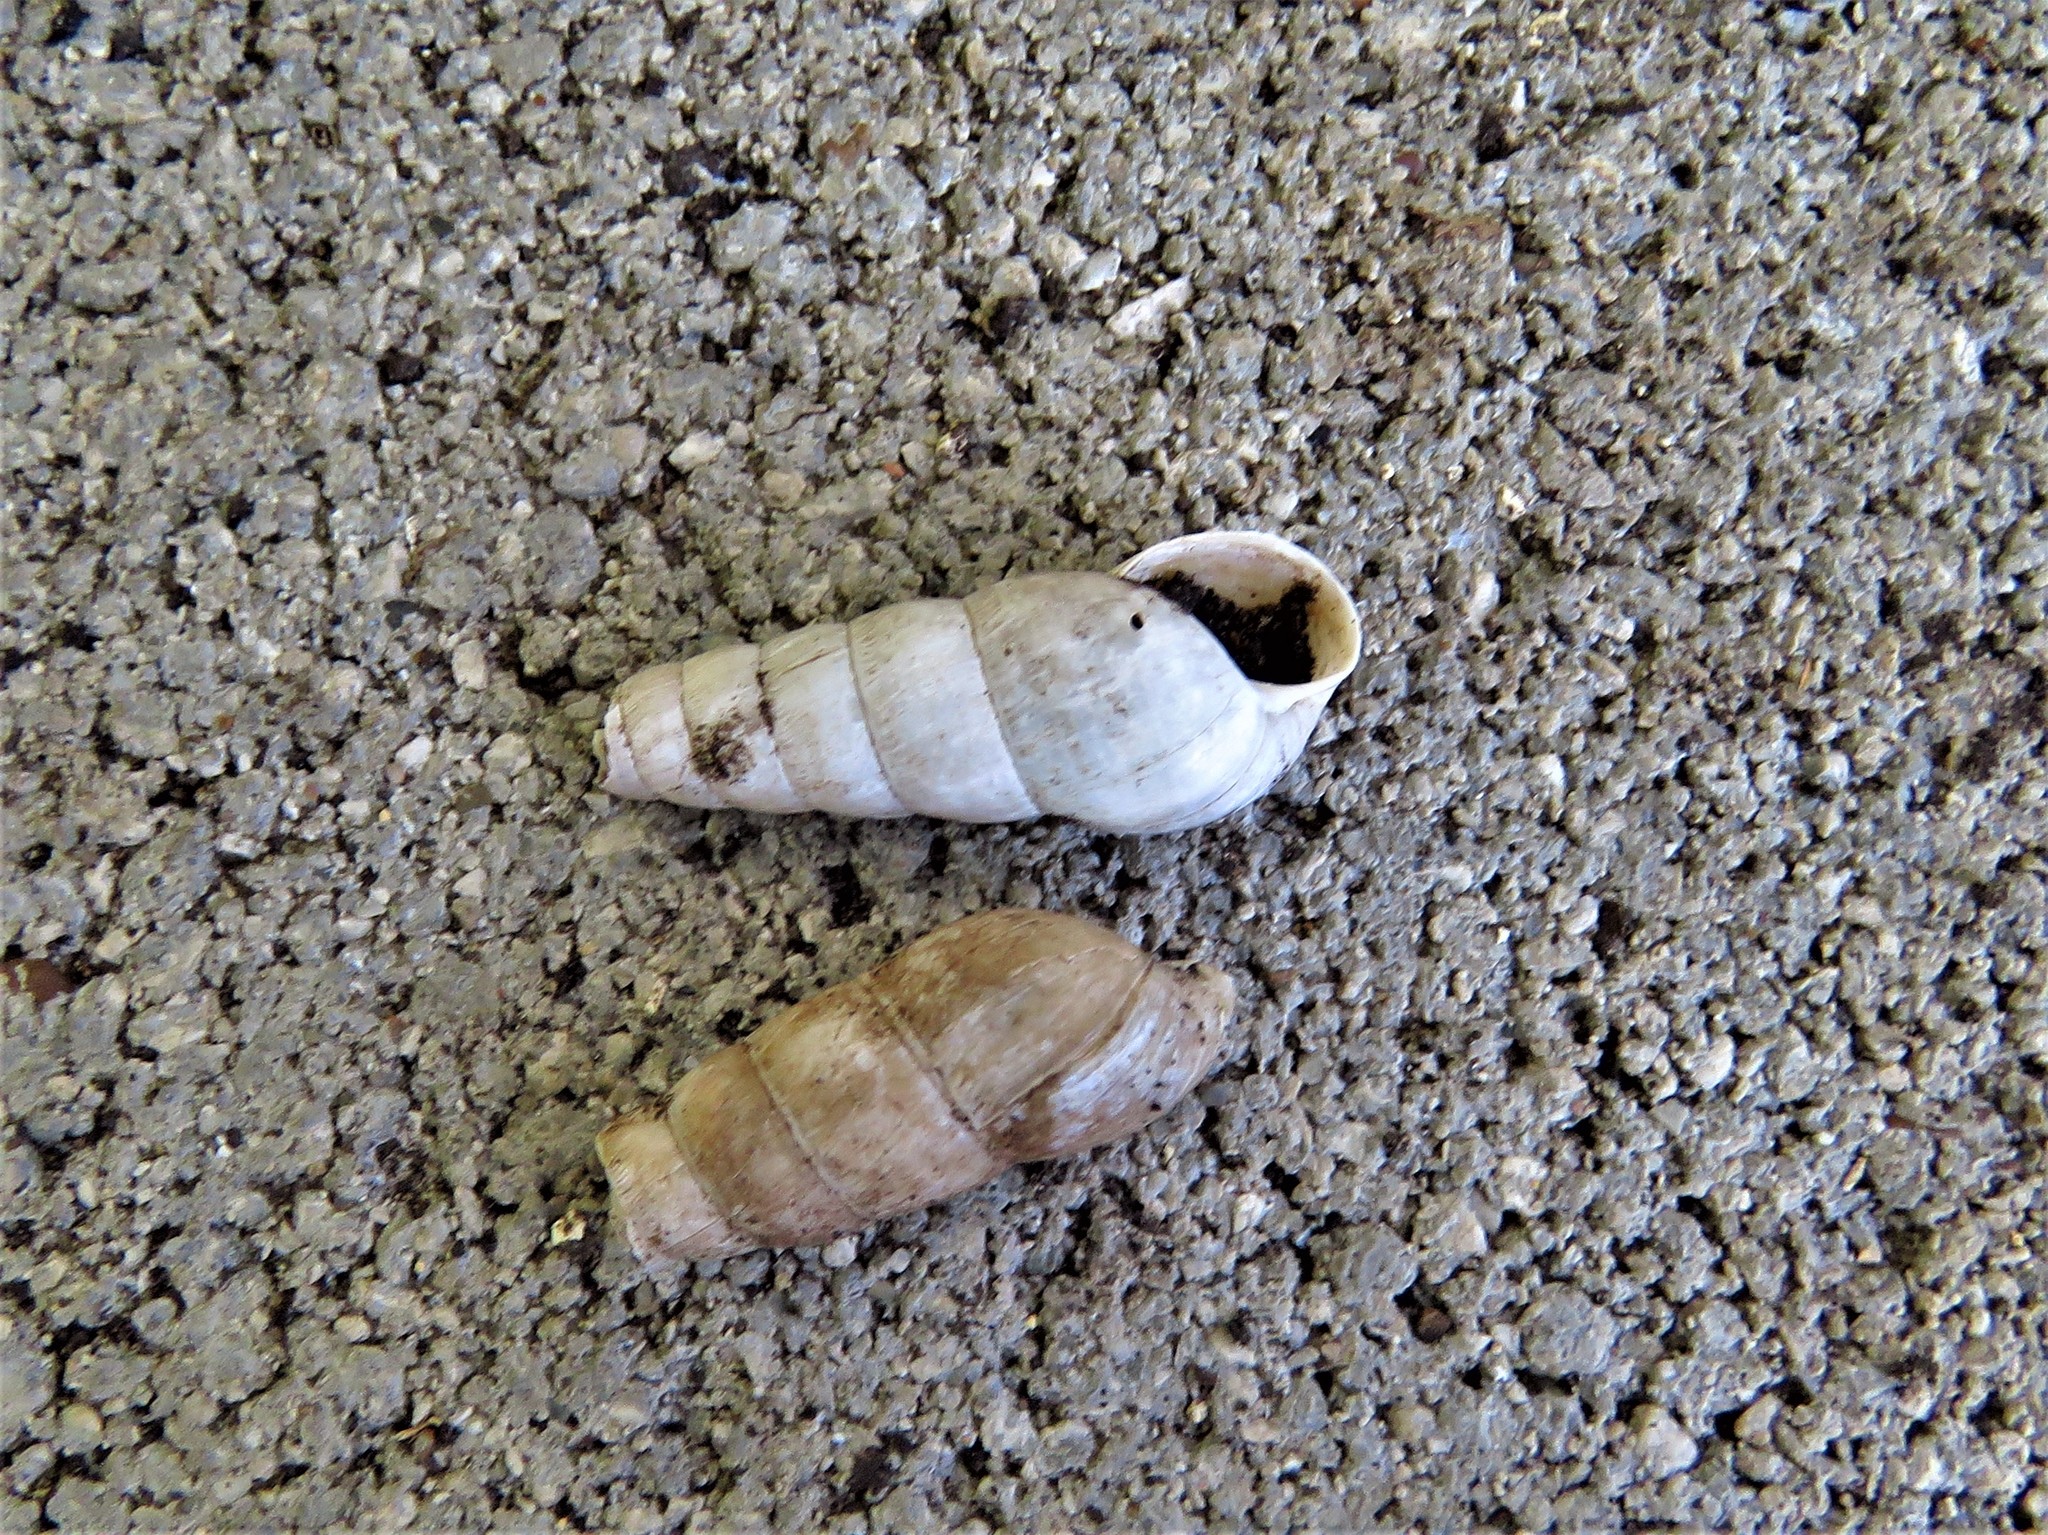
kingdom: Animalia
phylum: Mollusca
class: Gastropoda
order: Stylommatophora
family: Achatinidae
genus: Rumina
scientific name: Rumina decollata
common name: Decollate snail
